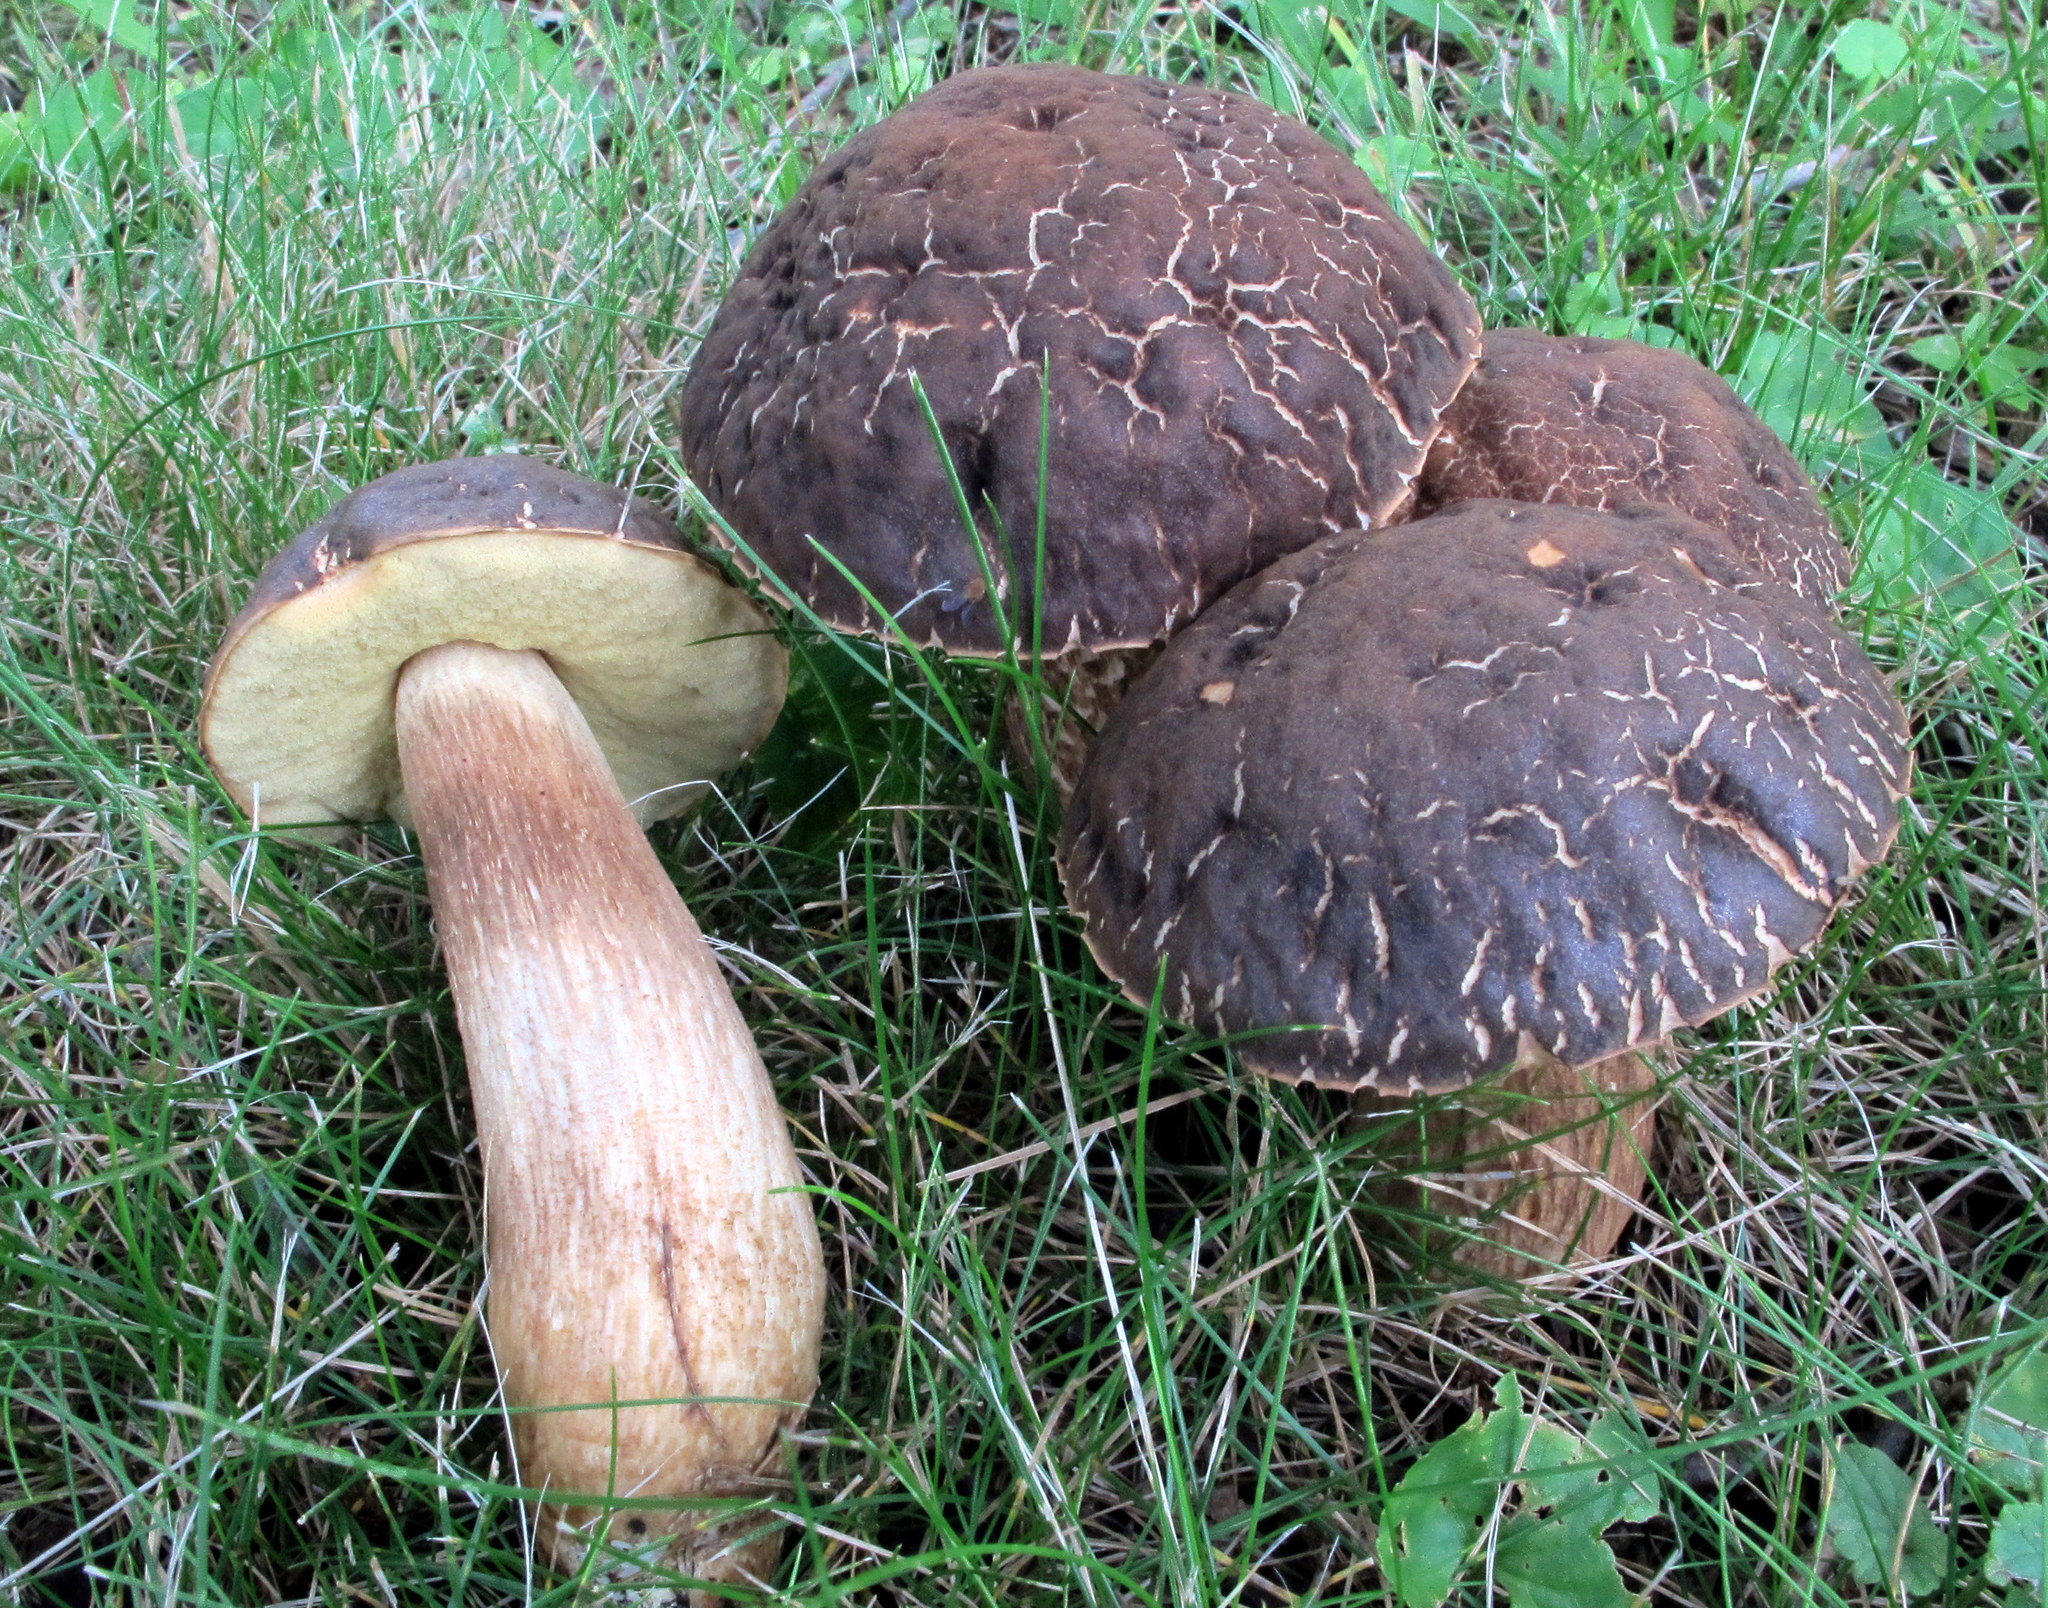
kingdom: Fungi
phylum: Basidiomycota
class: Agaricomycetes
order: Boletales
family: Boletaceae
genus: Leccinellum
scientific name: Leccinellum crocipodium
